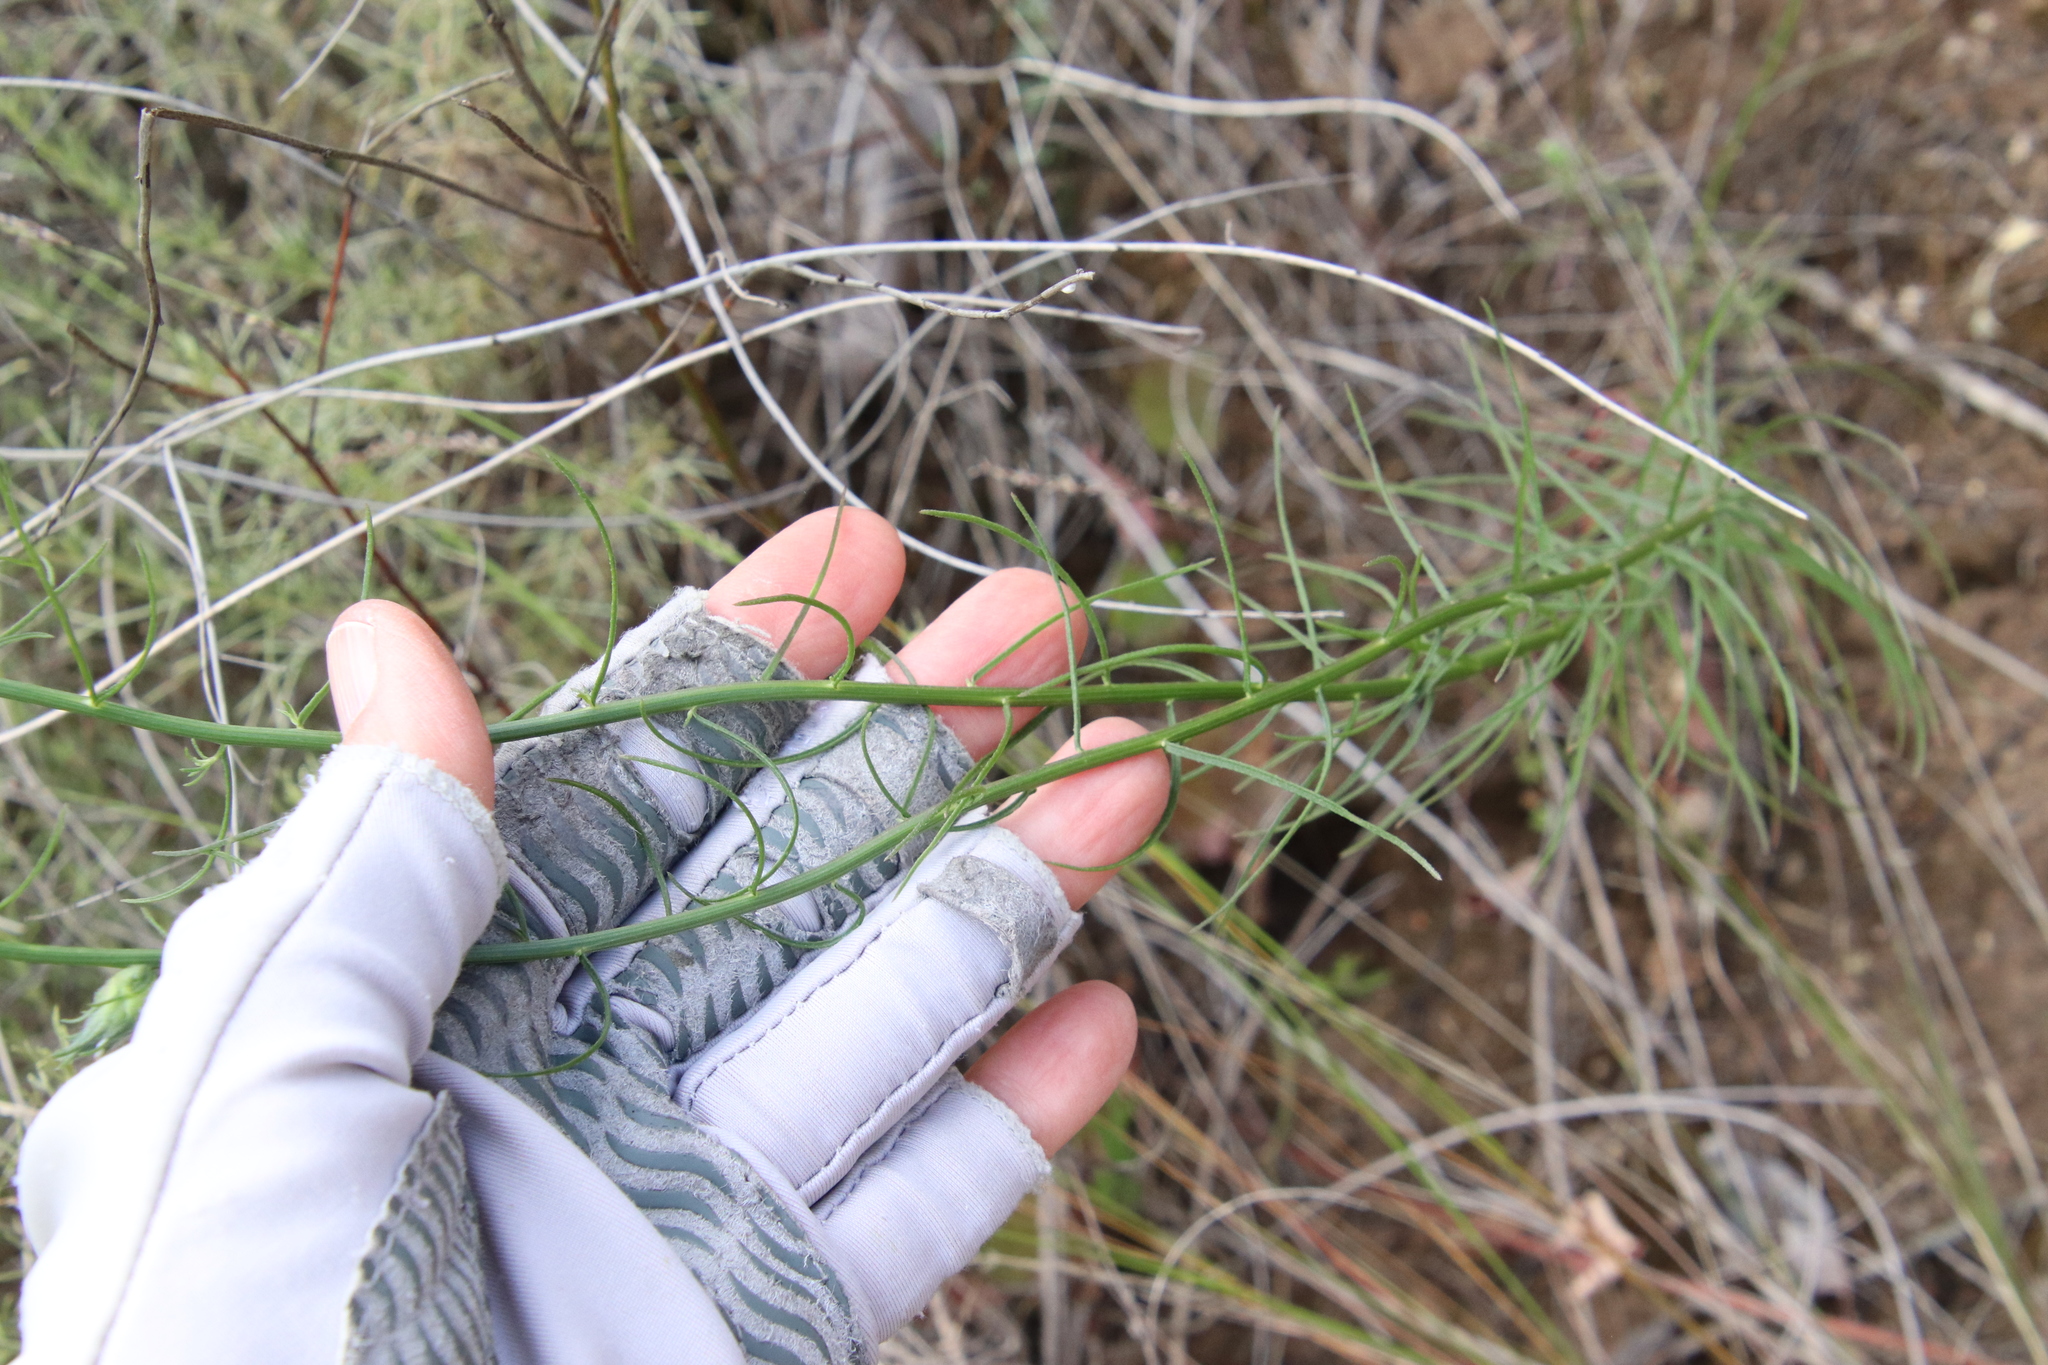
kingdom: Plantae
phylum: Tracheophyta
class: Magnoliopsida
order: Asterales
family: Asteraceae
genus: Erigeron
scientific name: Erigeron foliosus
